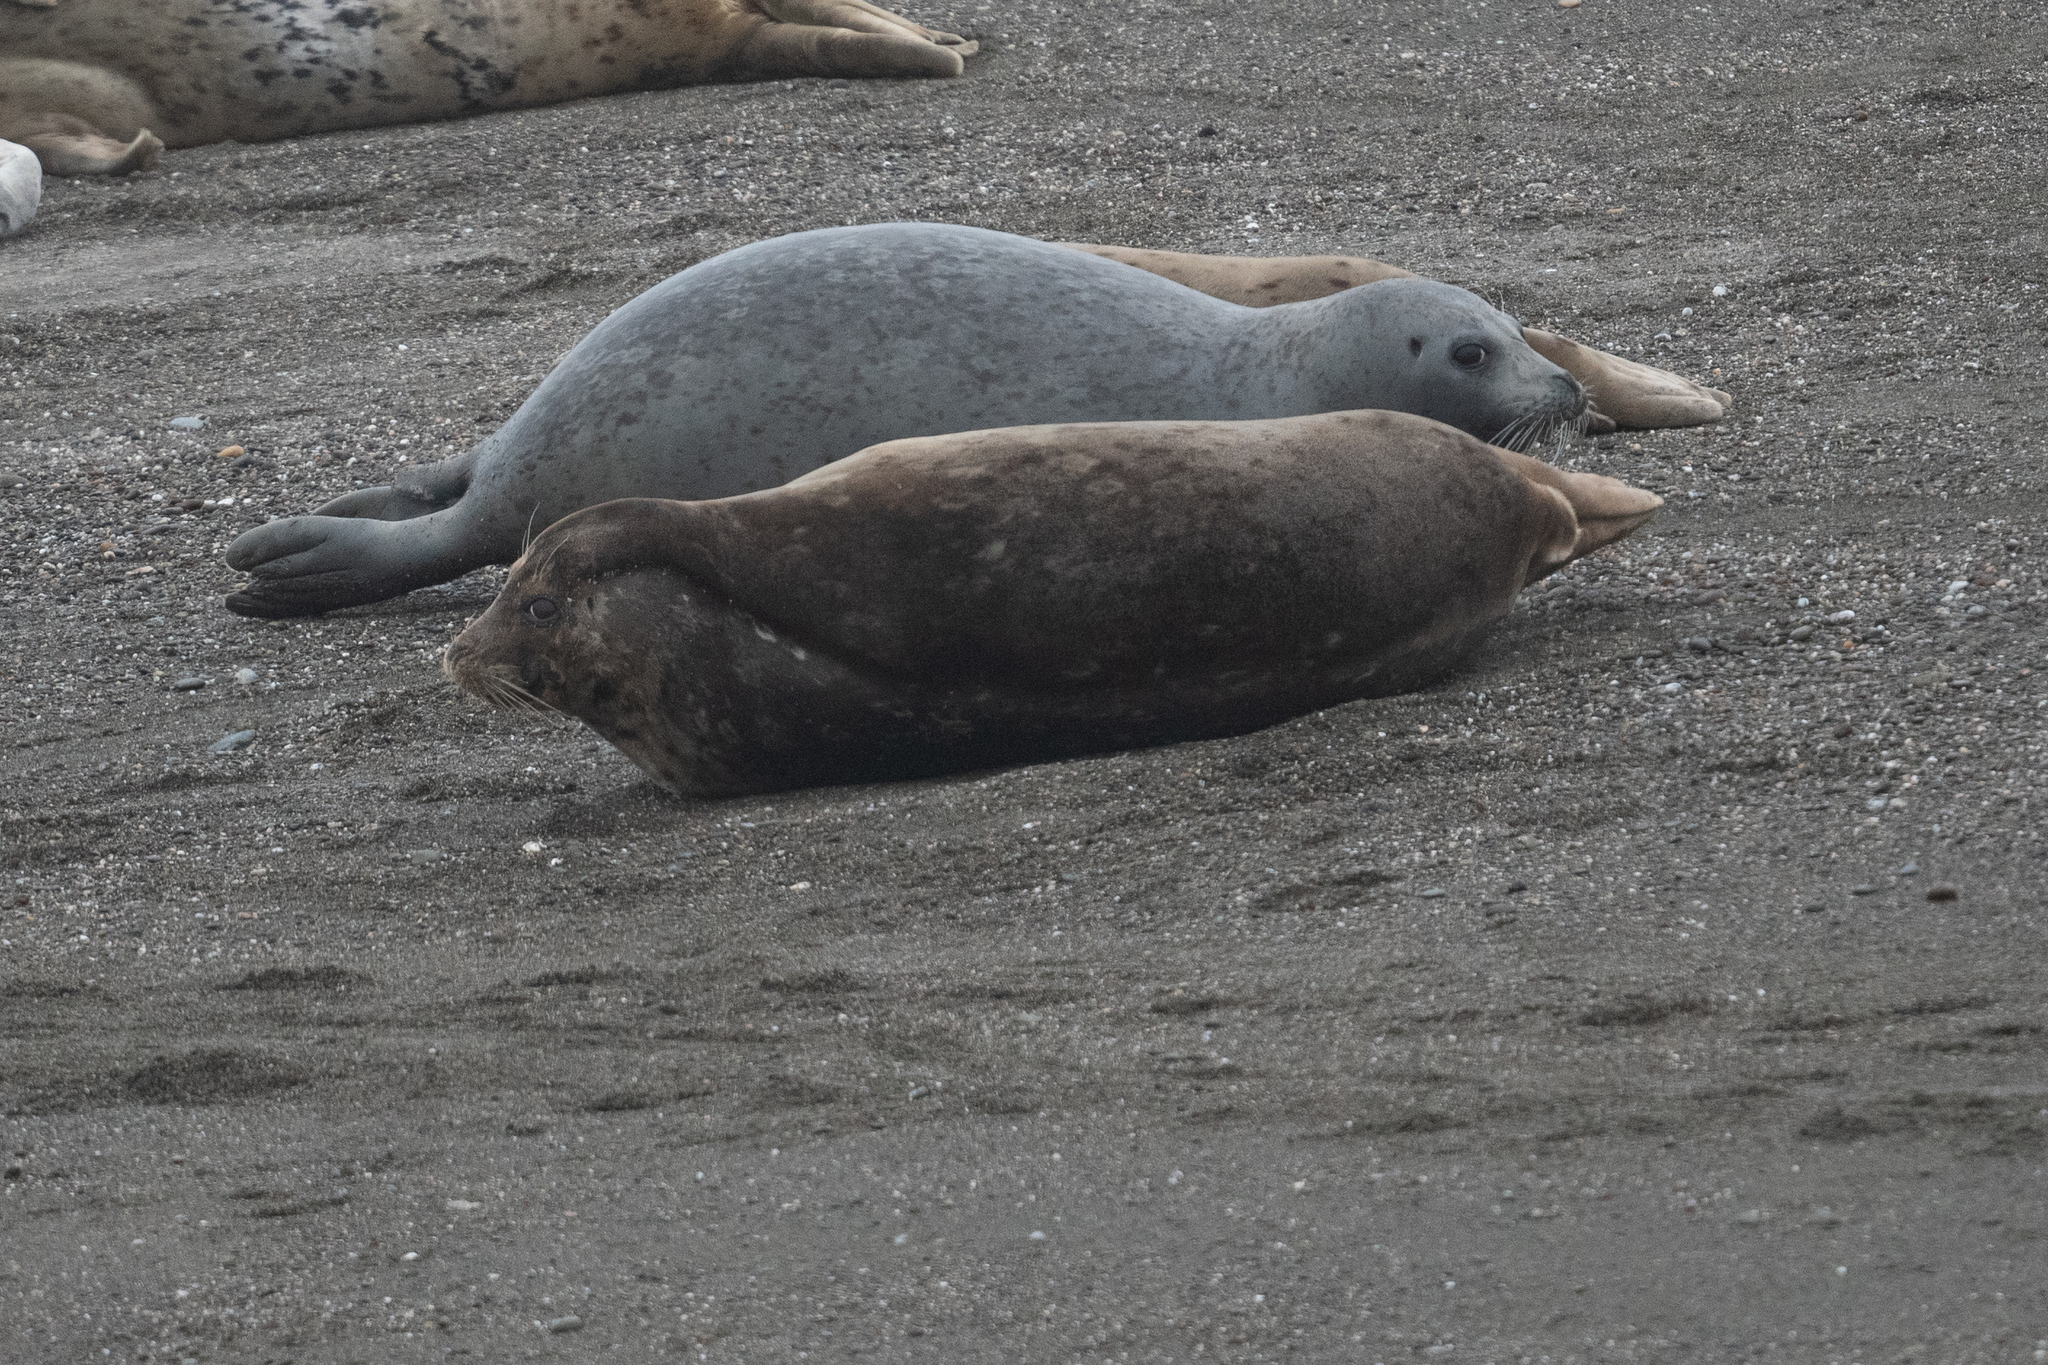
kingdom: Animalia
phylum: Chordata
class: Mammalia
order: Carnivora
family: Phocidae
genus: Phoca
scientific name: Phoca vitulina
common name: Harbor seal
